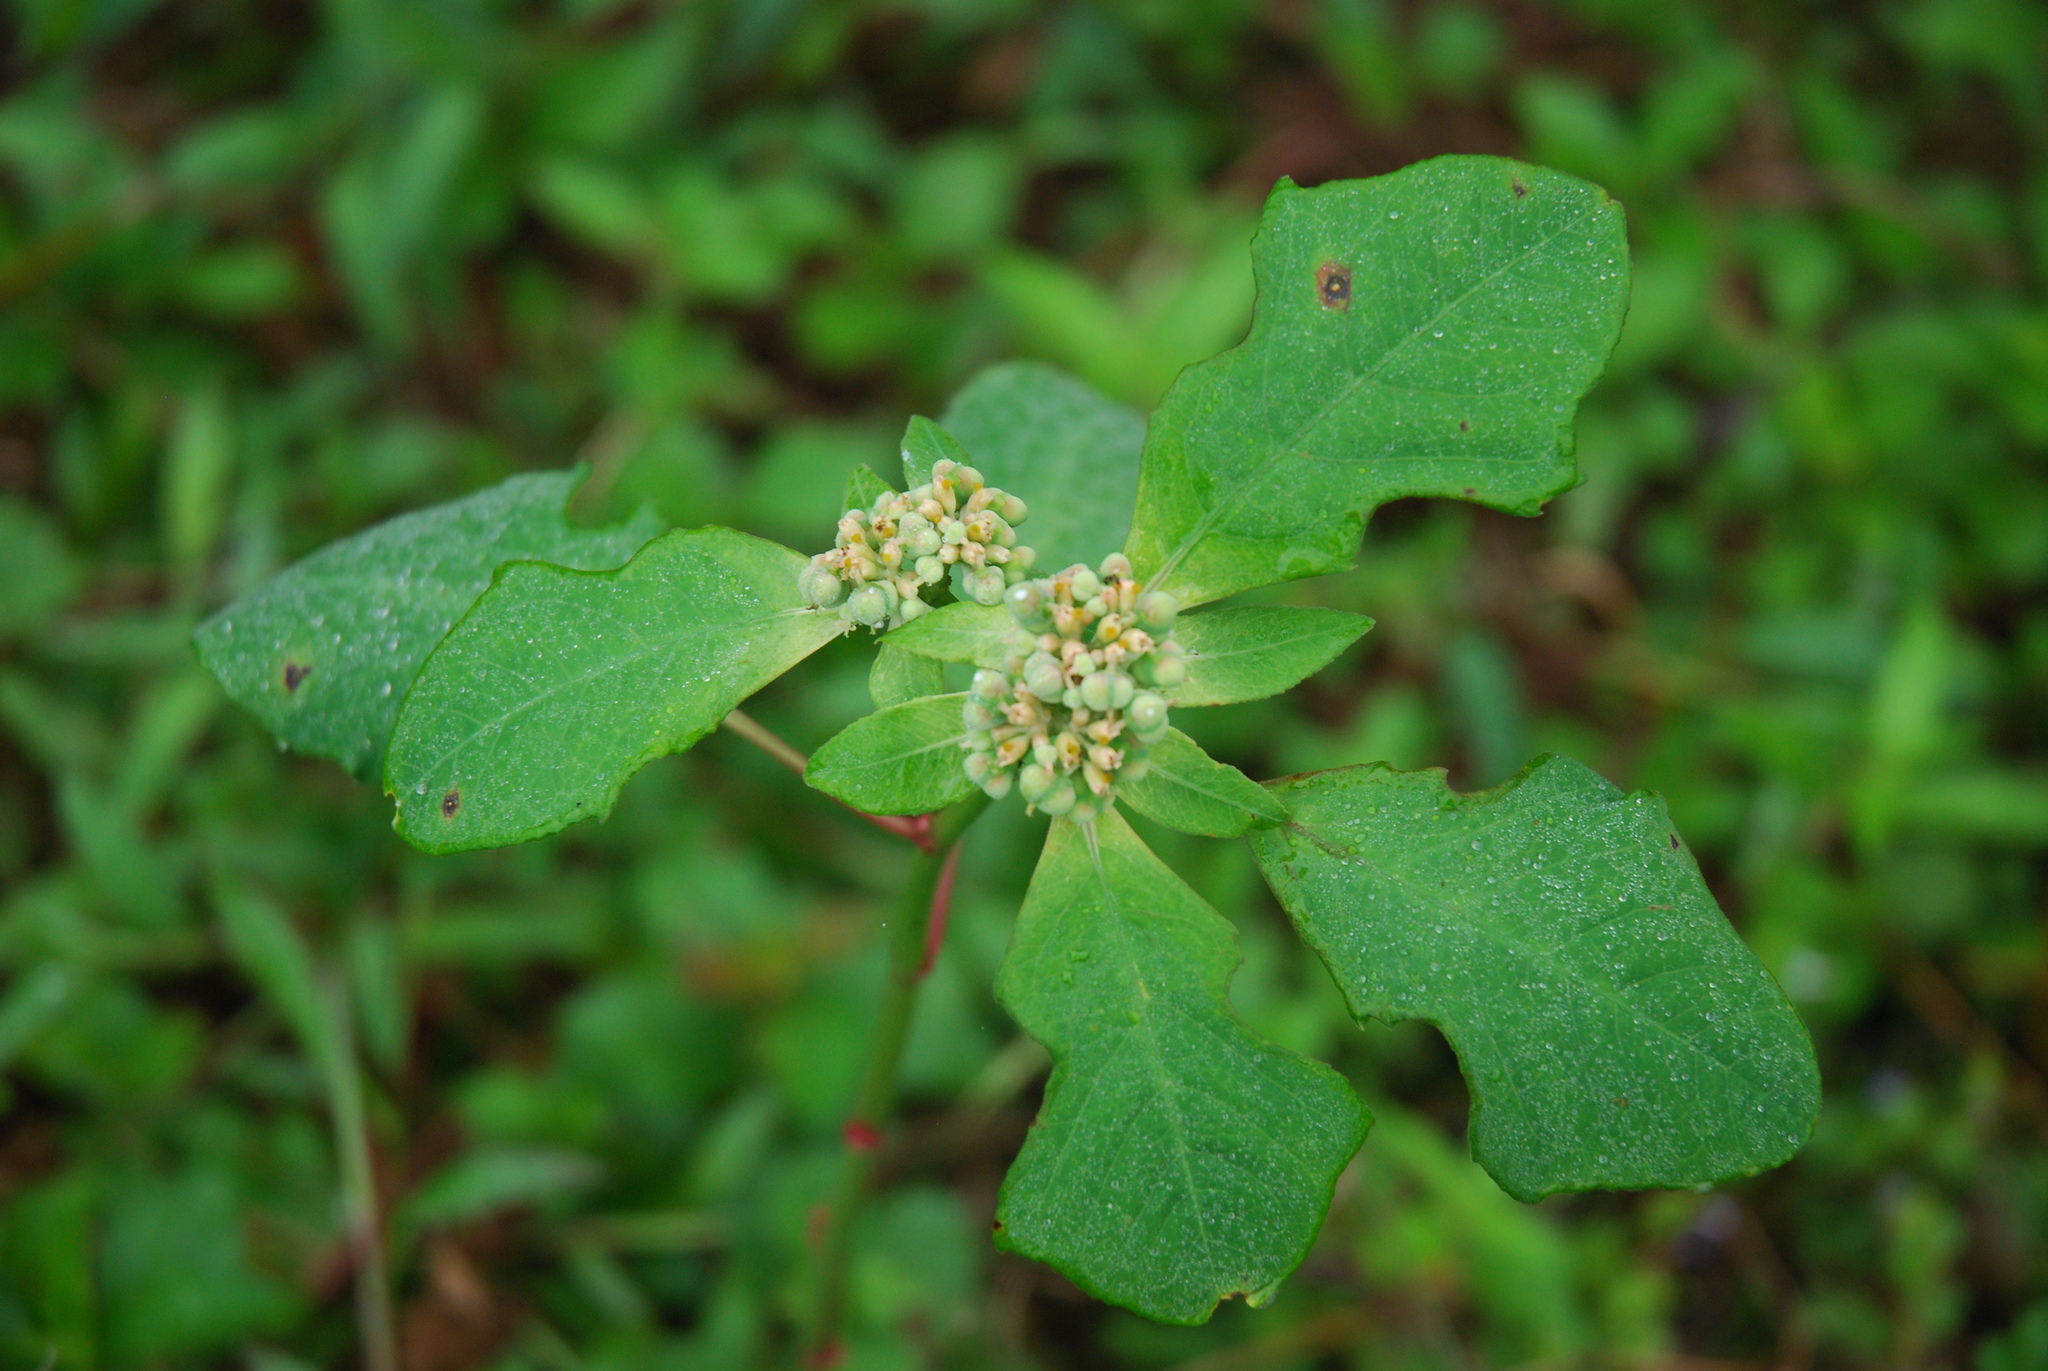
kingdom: Plantae
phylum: Tracheophyta
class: Magnoliopsida
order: Malpighiales
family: Euphorbiaceae
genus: Euphorbia
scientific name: Euphorbia heterophylla
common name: Mexican fireplant
